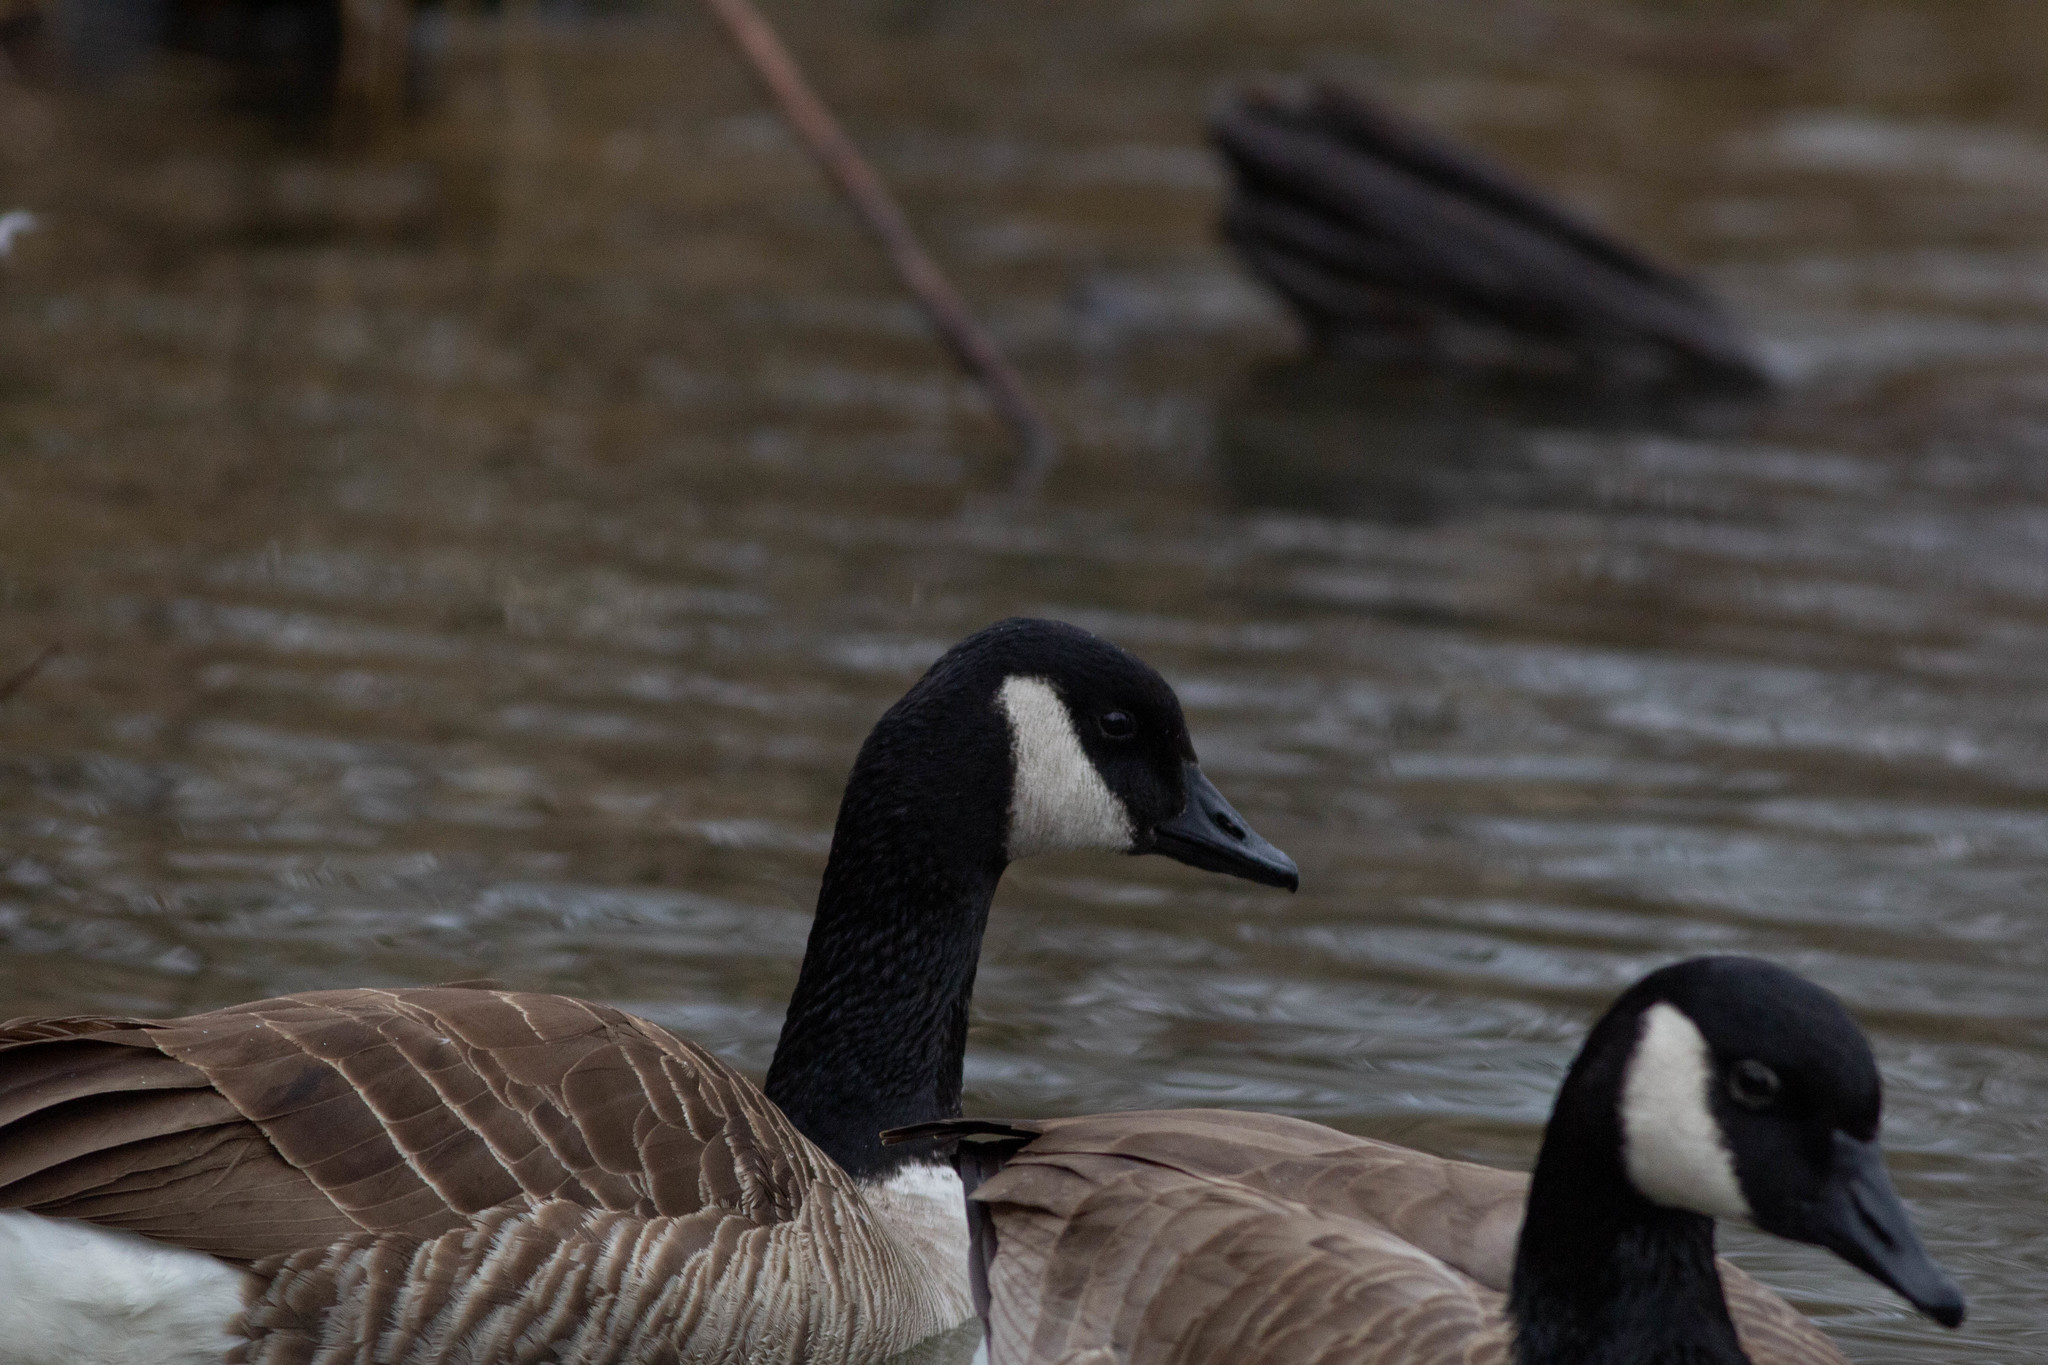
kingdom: Animalia
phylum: Chordata
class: Aves
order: Anseriformes
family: Anatidae
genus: Branta
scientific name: Branta canadensis
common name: Canada goose
